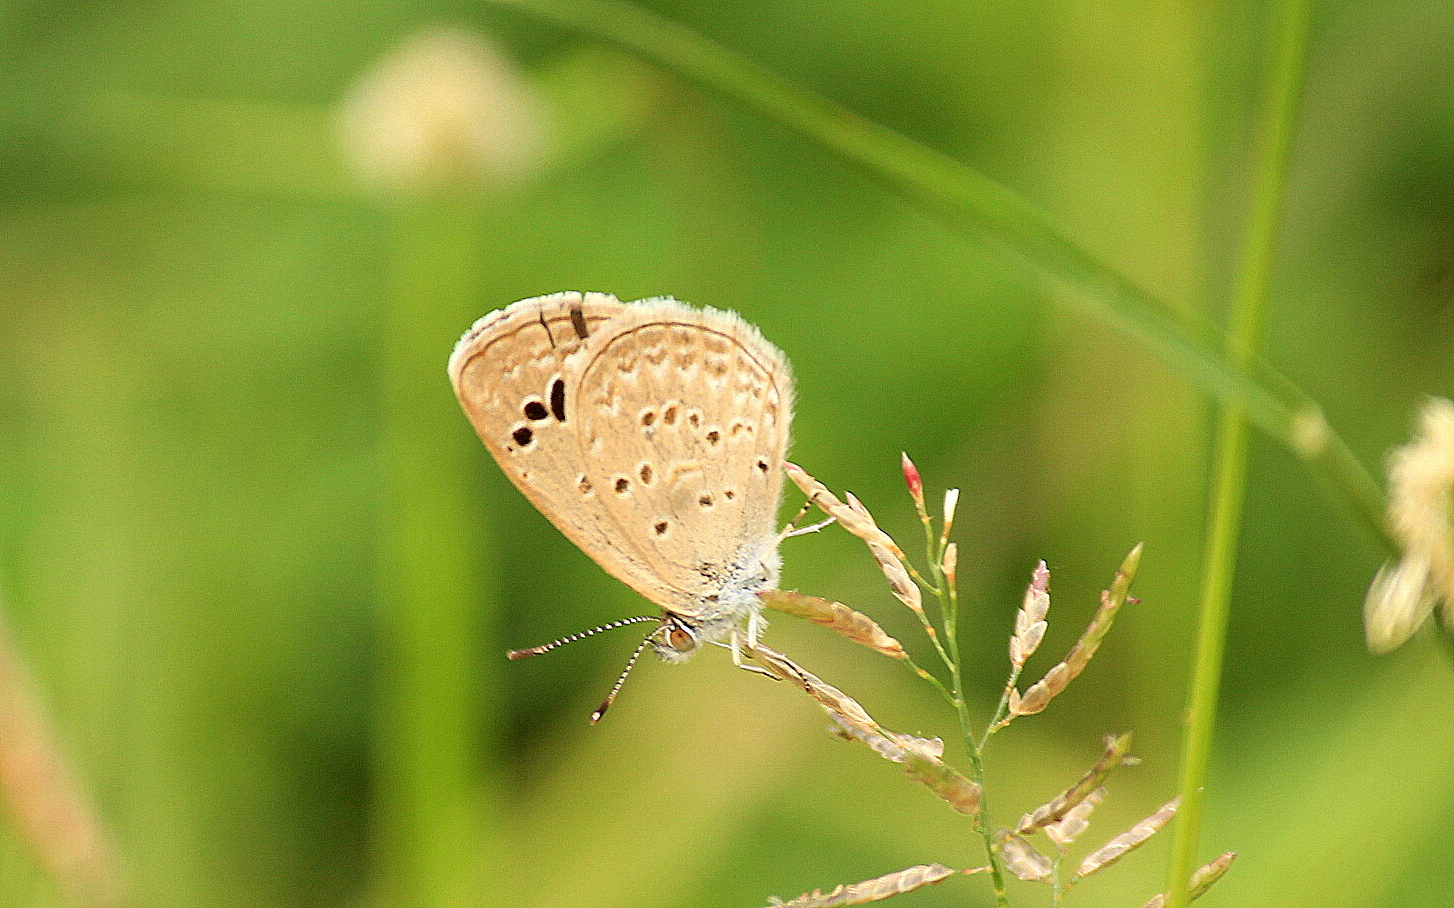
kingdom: Animalia
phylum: Arthropoda
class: Insecta
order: Lepidoptera
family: Lycaenidae
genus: Zizina
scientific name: Zizina otis
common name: Lesser grass blue
